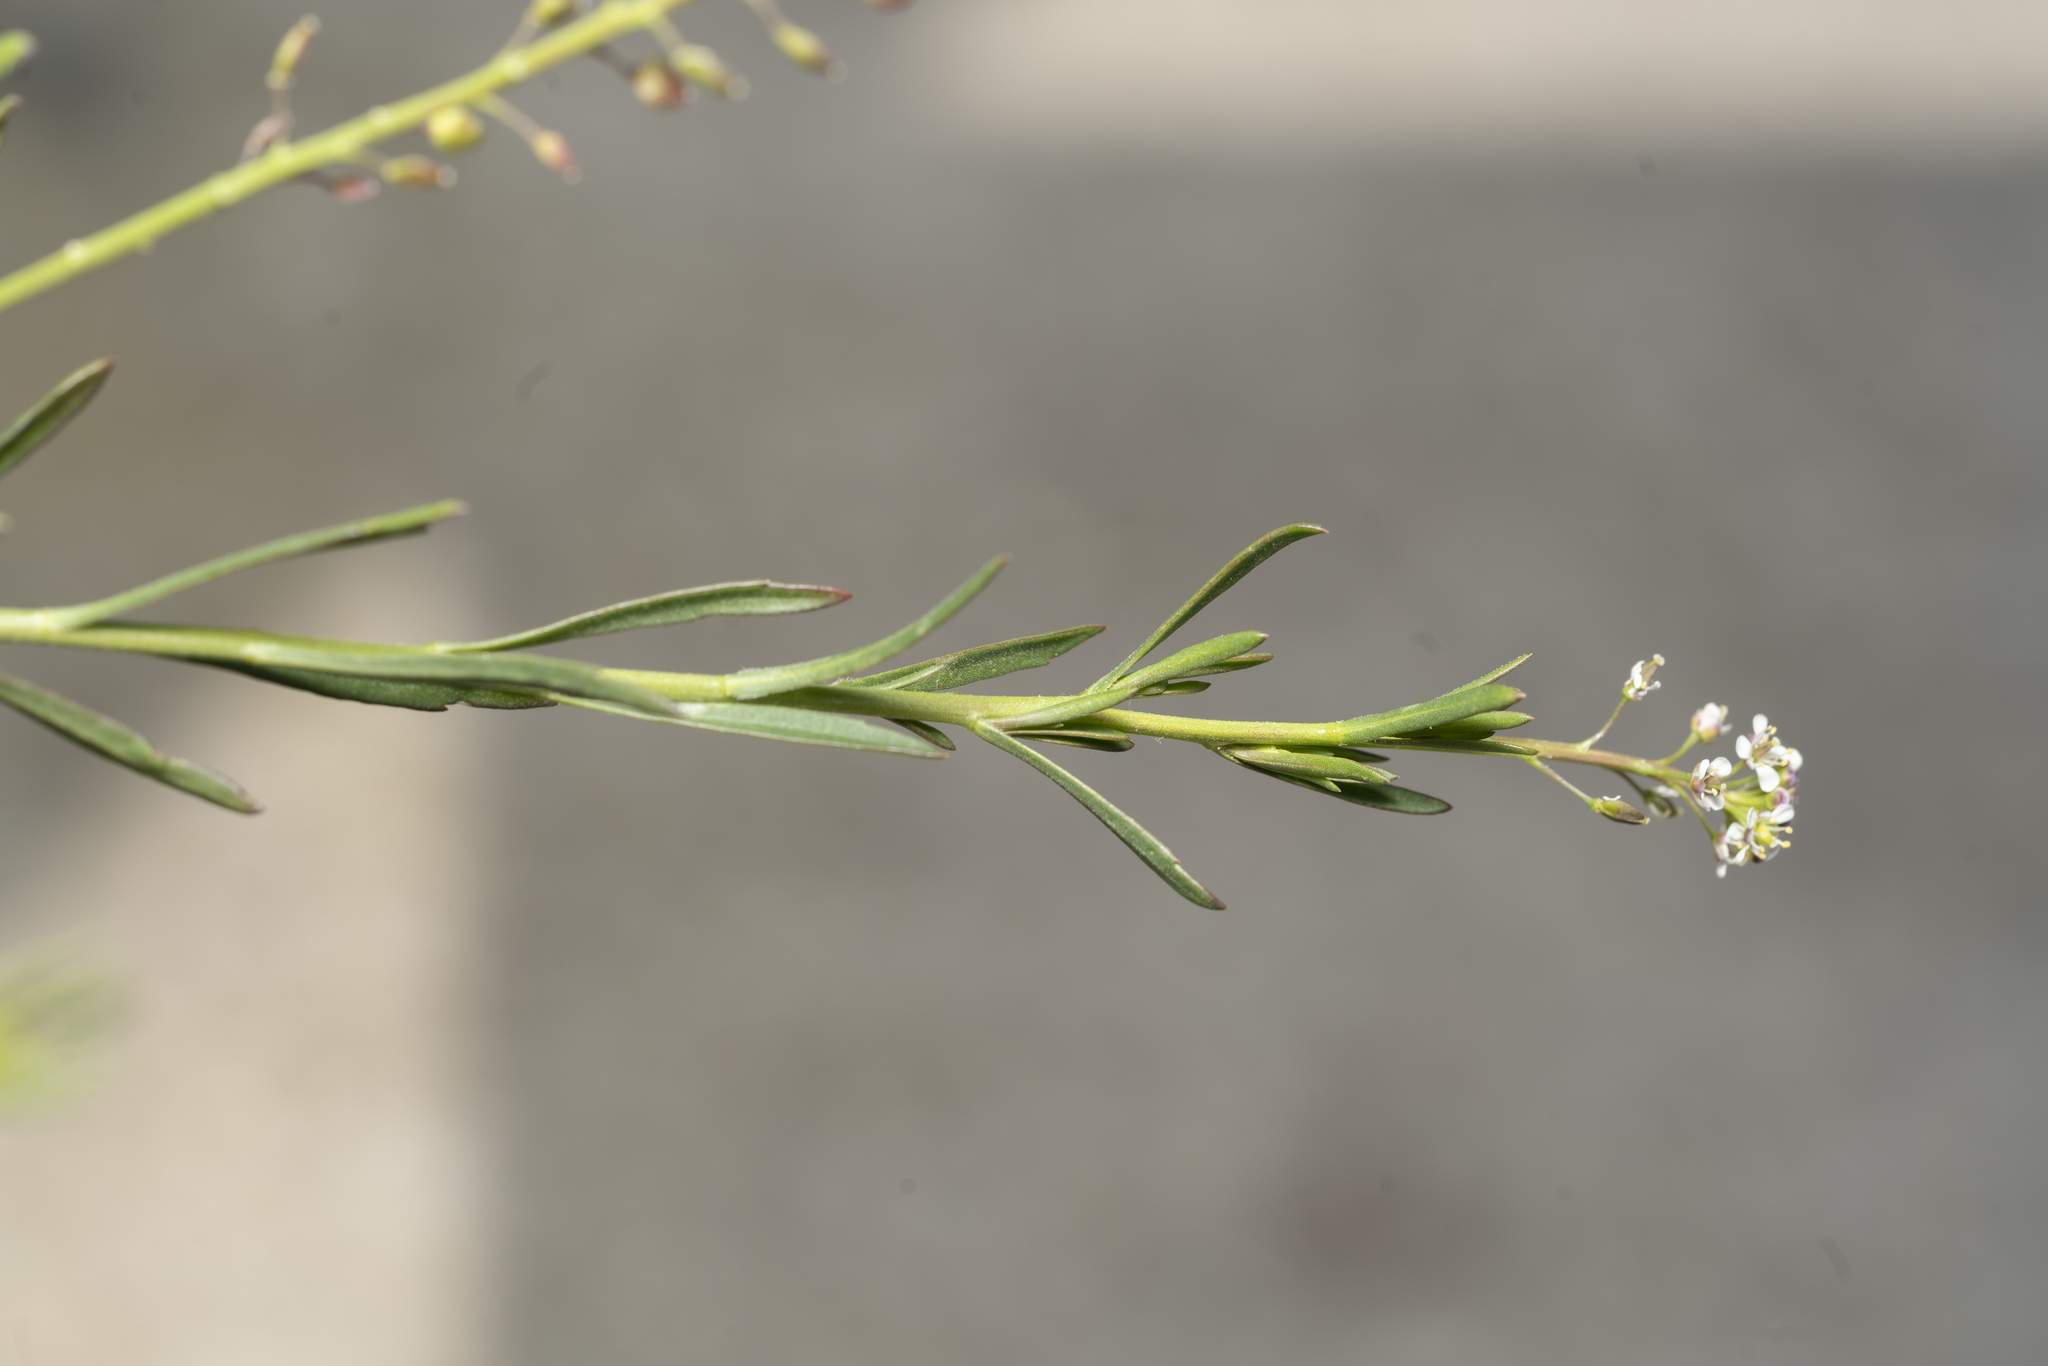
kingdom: Plantae
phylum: Tracheophyta
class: Magnoliopsida
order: Brassicales
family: Brassicaceae
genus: Lepidium
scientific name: Lepidium graminifolium
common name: Tall pepperwort
